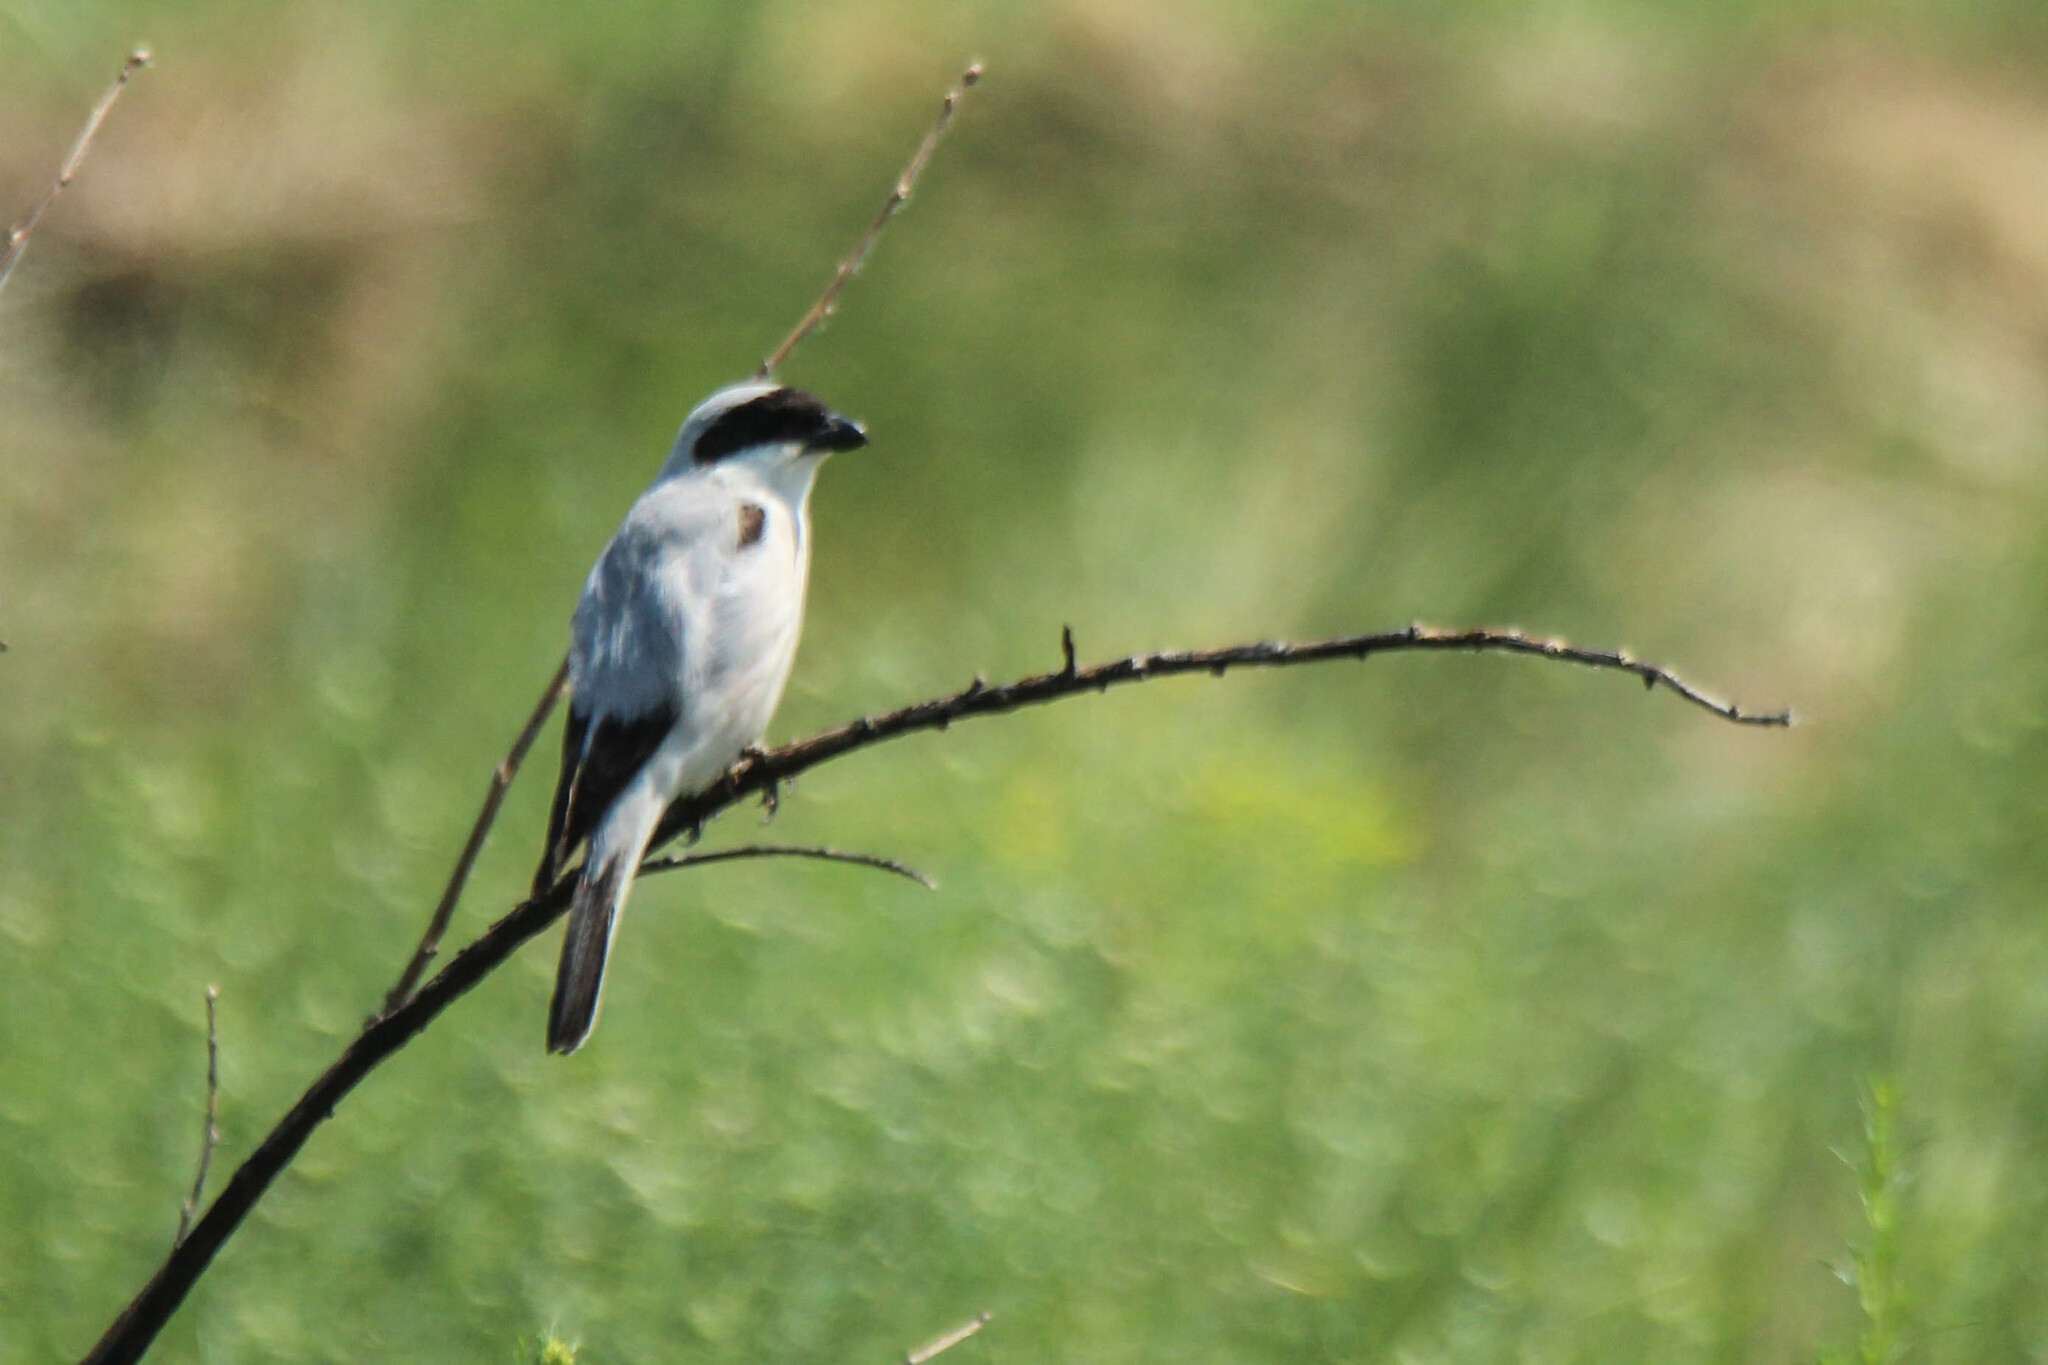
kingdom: Animalia
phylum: Chordata
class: Aves
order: Passeriformes
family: Laniidae
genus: Lanius
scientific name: Lanius minor
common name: Lesser grey shrike
